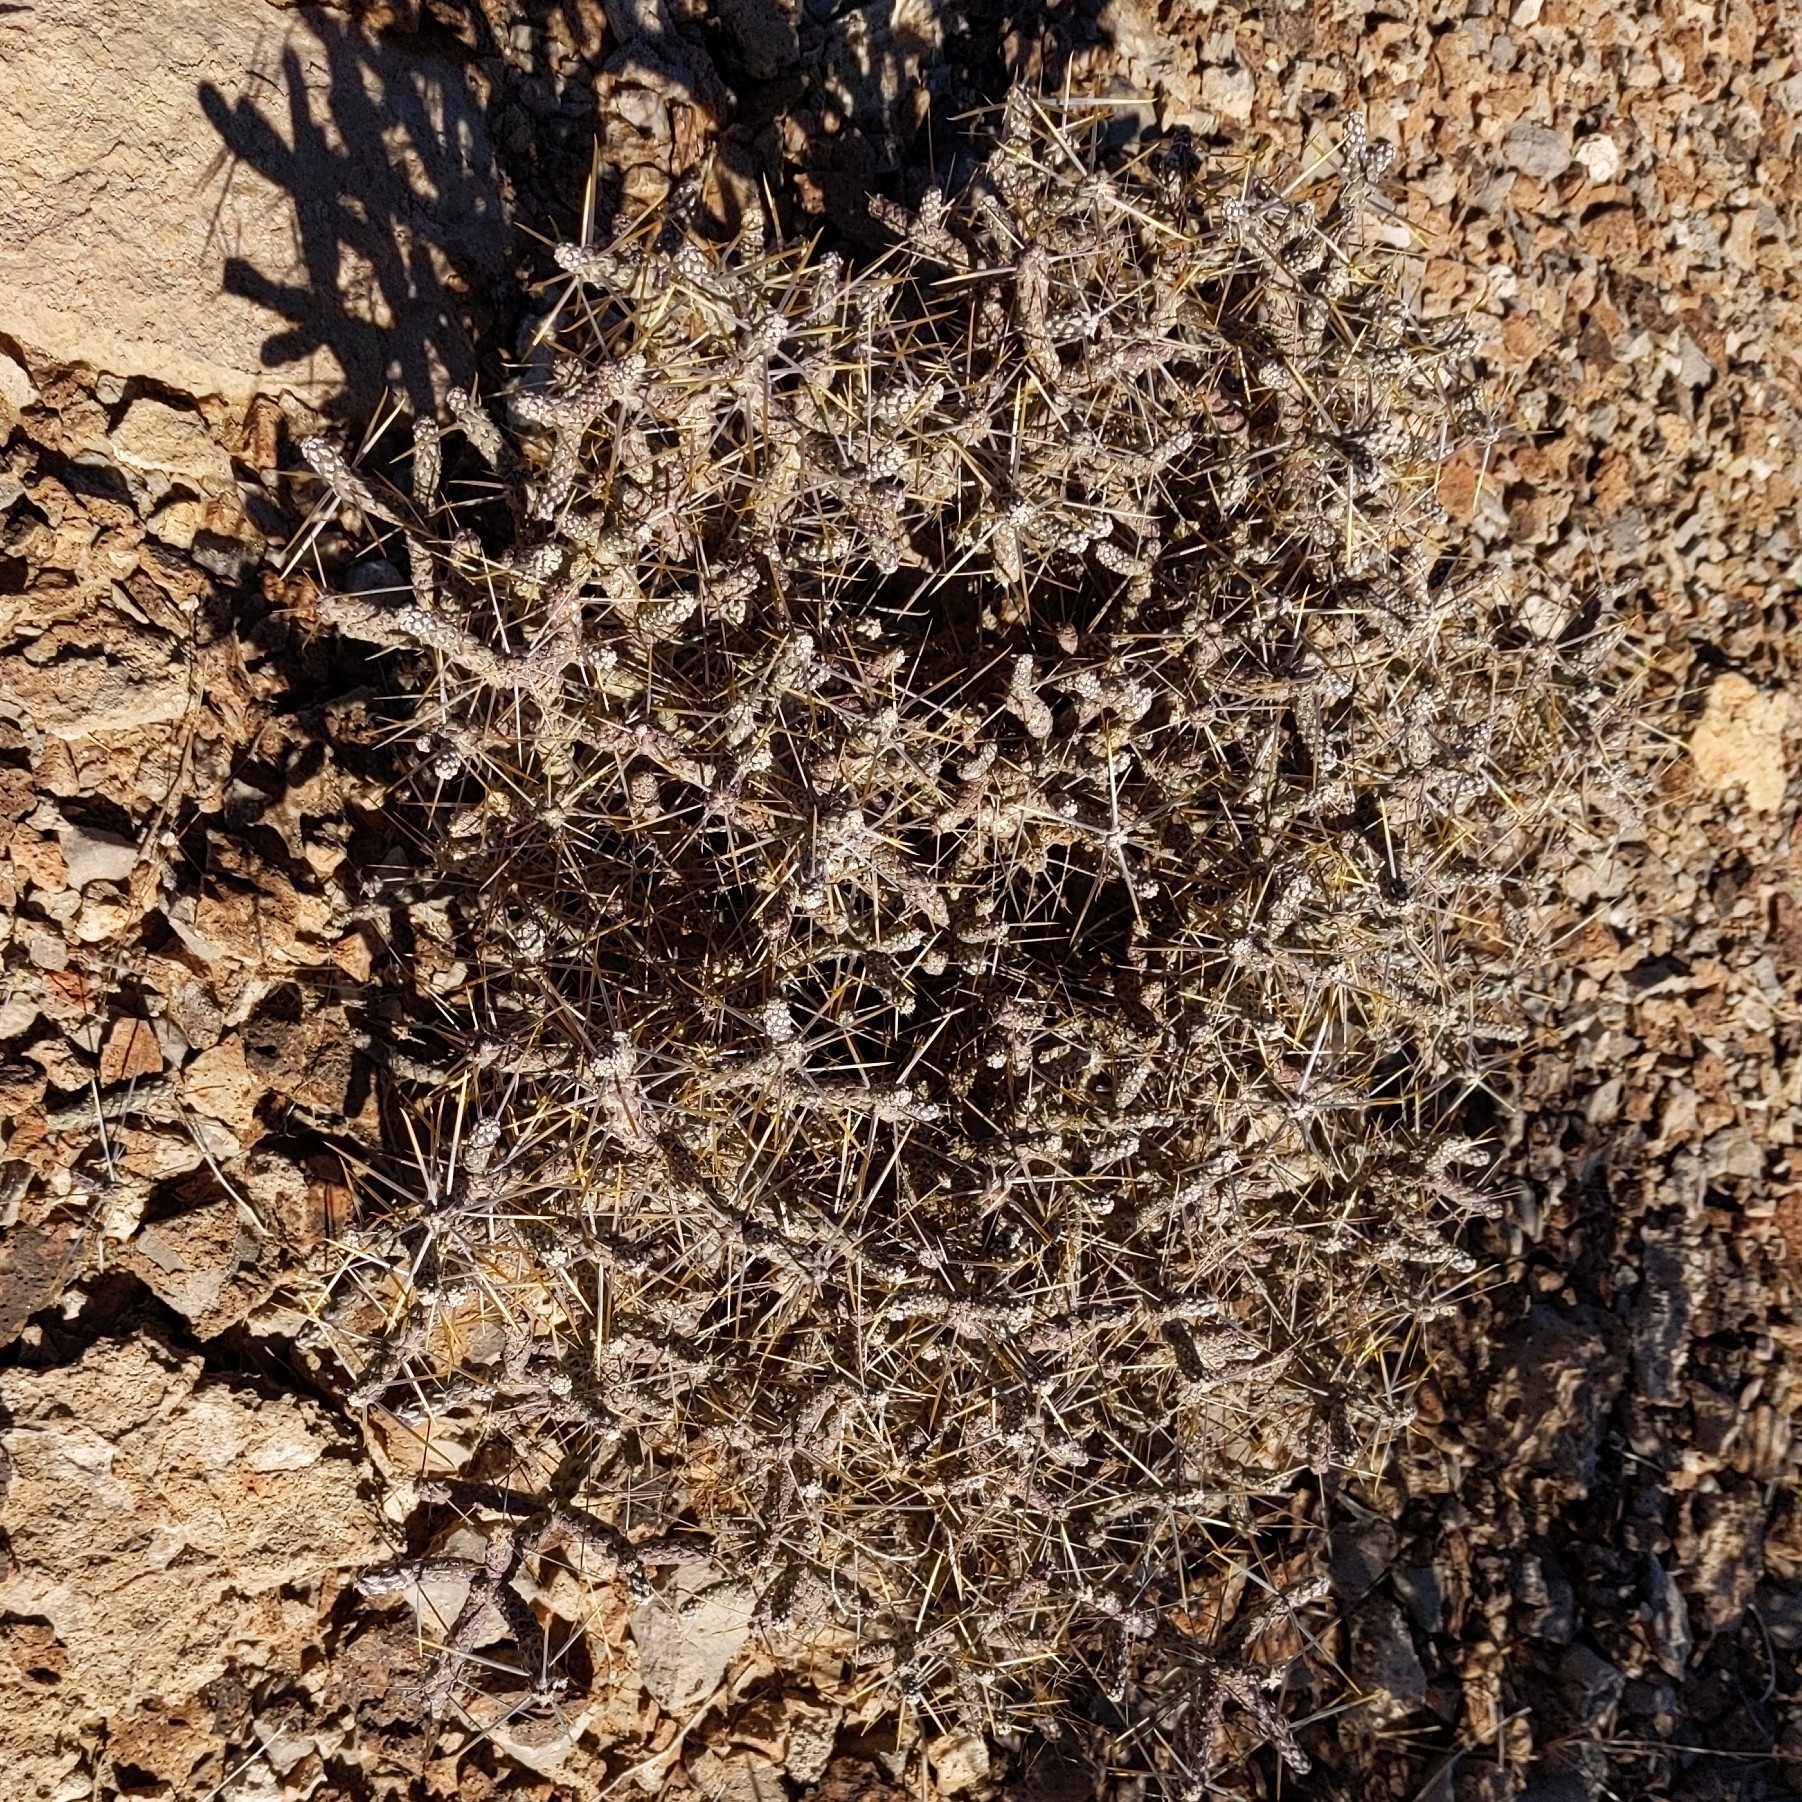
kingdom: Plantae
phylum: Tracheophyta
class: Magnoliopsida
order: Caryophyllales
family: Cactaceae
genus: Cylindropuntia
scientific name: Cylindropuntia ramosissima
